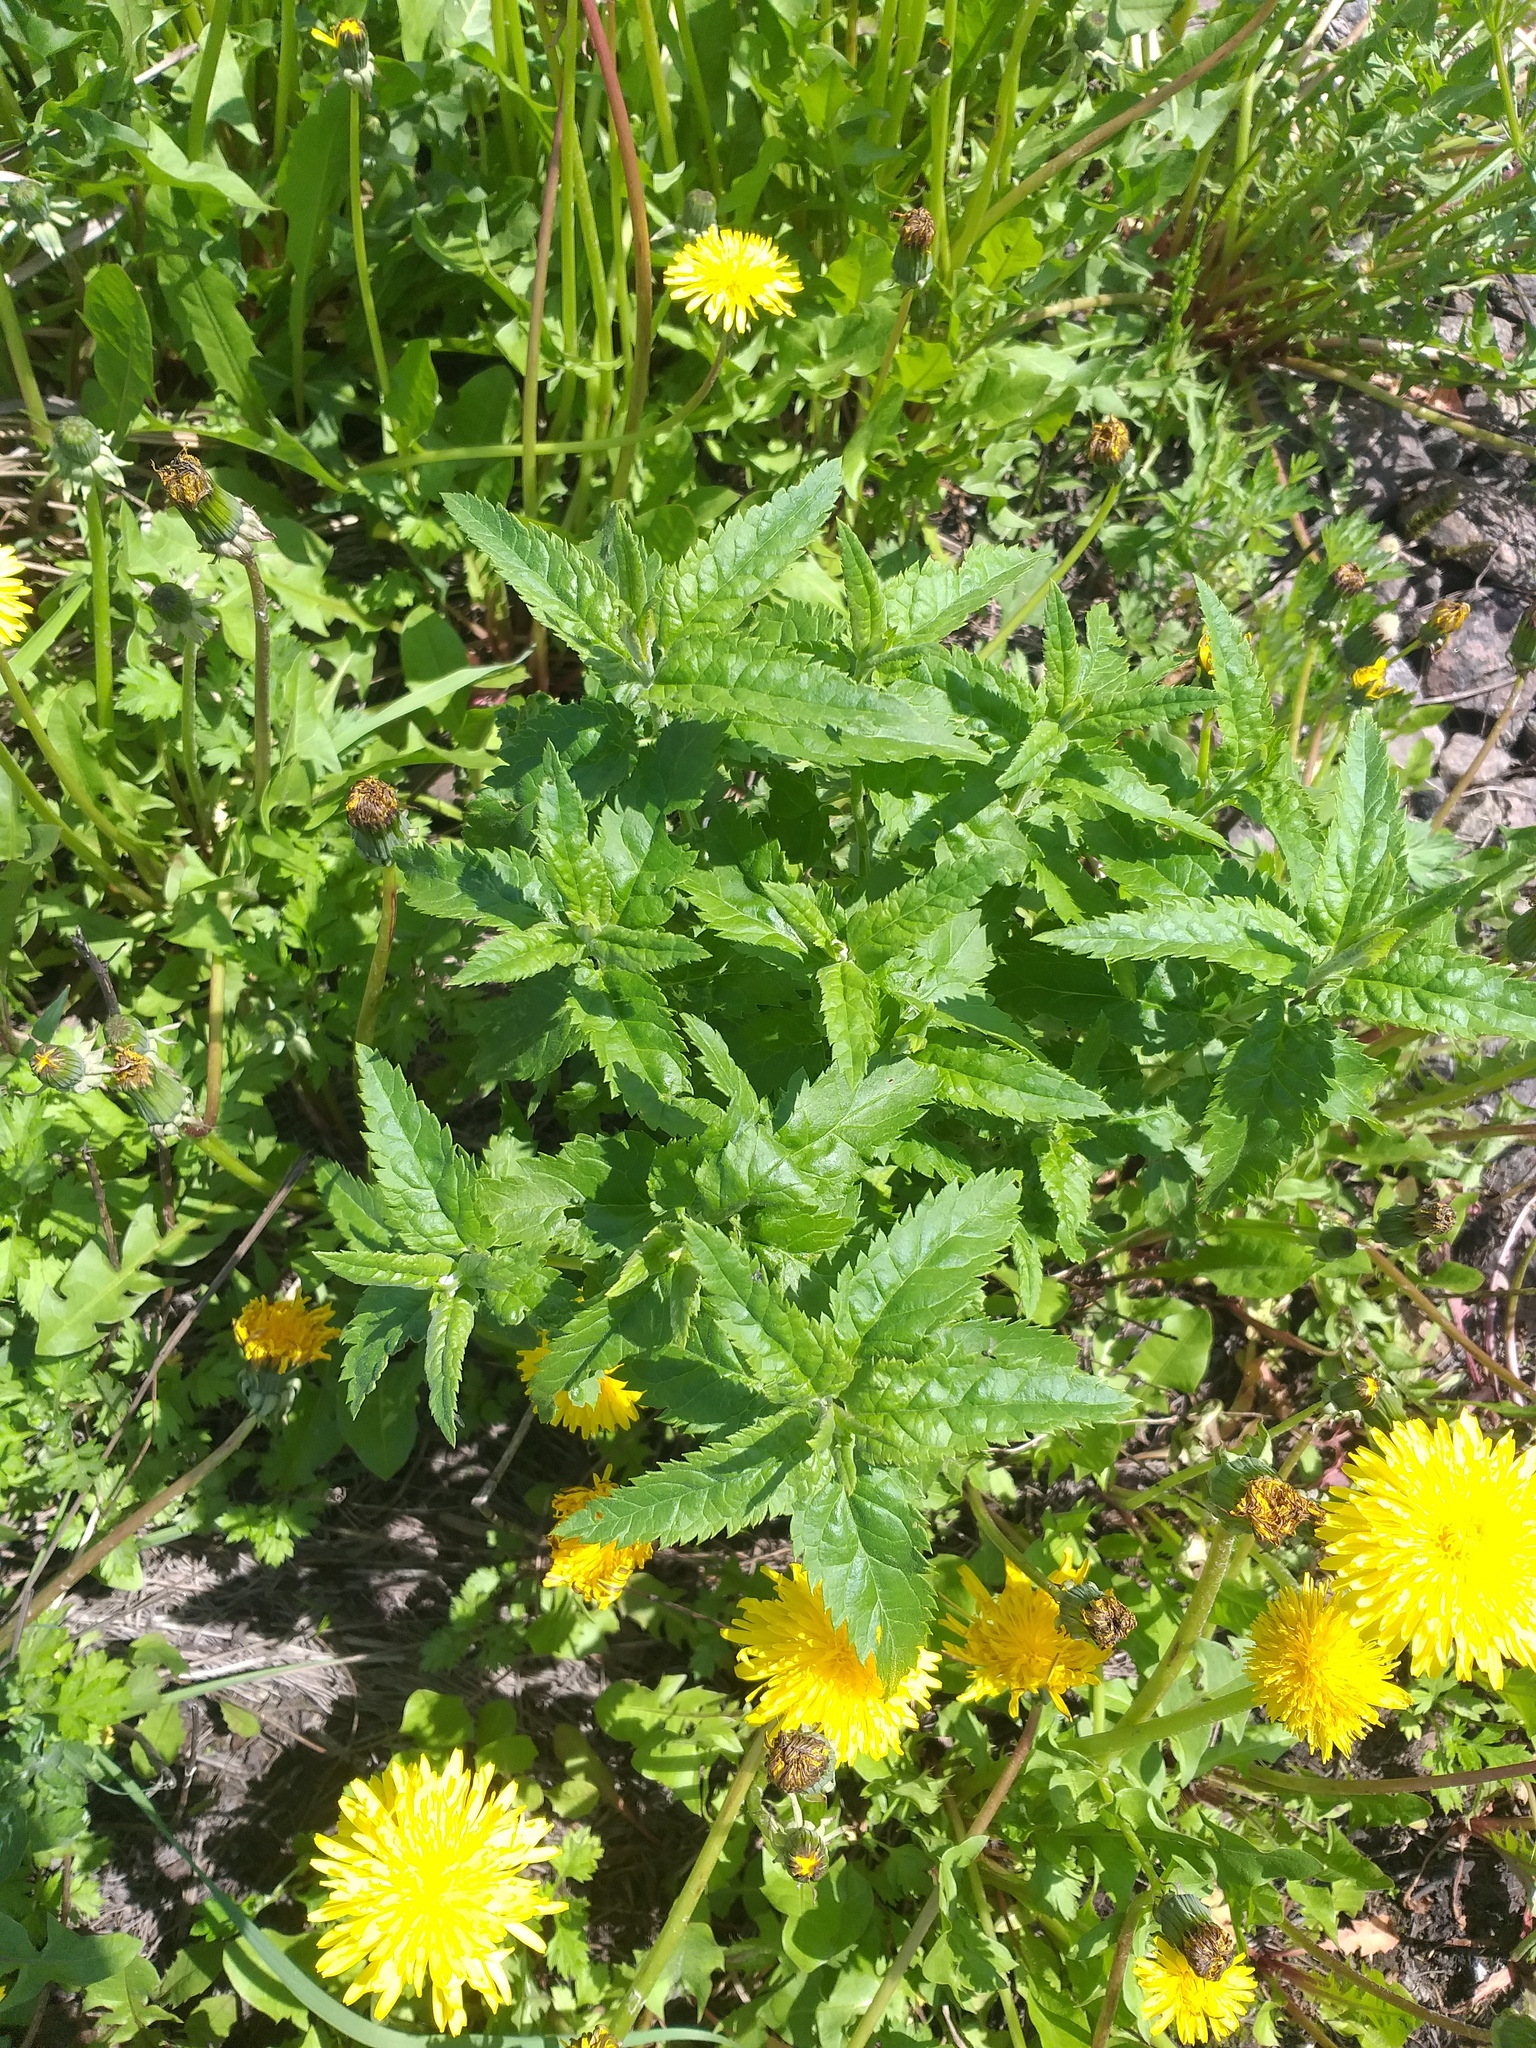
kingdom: Plantae
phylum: Tracheophyta
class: Magnoliopsida
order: Lamiales
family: Plantaginaceae
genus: Veronica
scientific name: Veronica longifolia
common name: Garden speedwell
